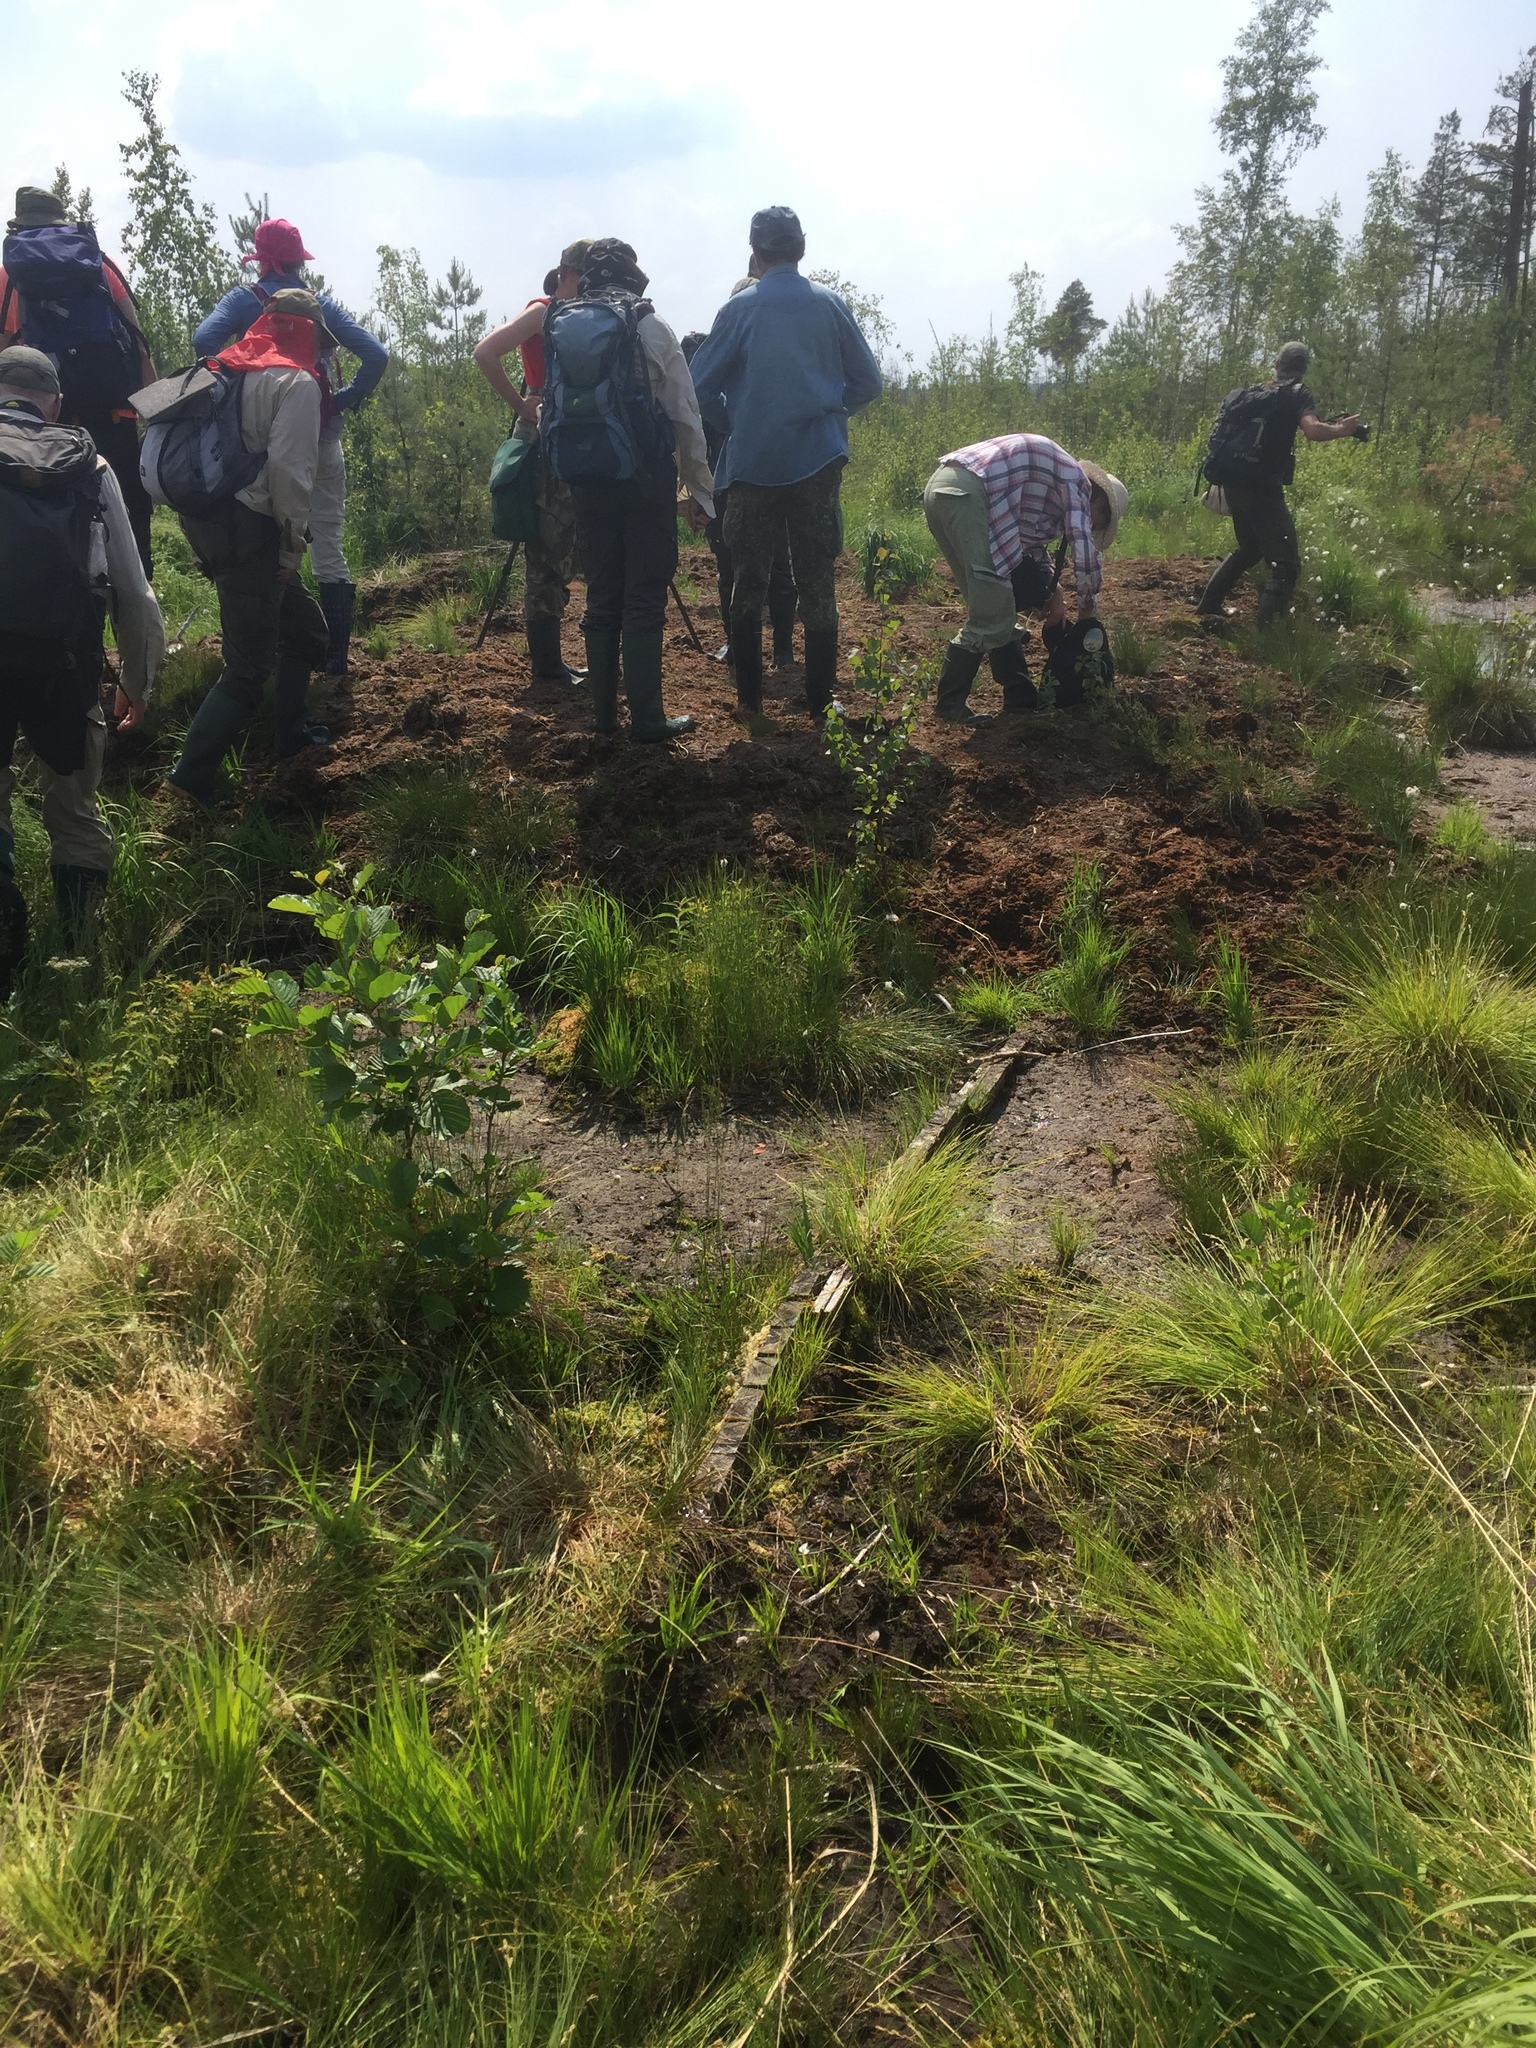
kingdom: Plantae
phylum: Tracheophyta
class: Liliopsida
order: Poales
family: Poaceae
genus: Molinia
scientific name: Molinia caerulea
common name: Purple moor-grass
